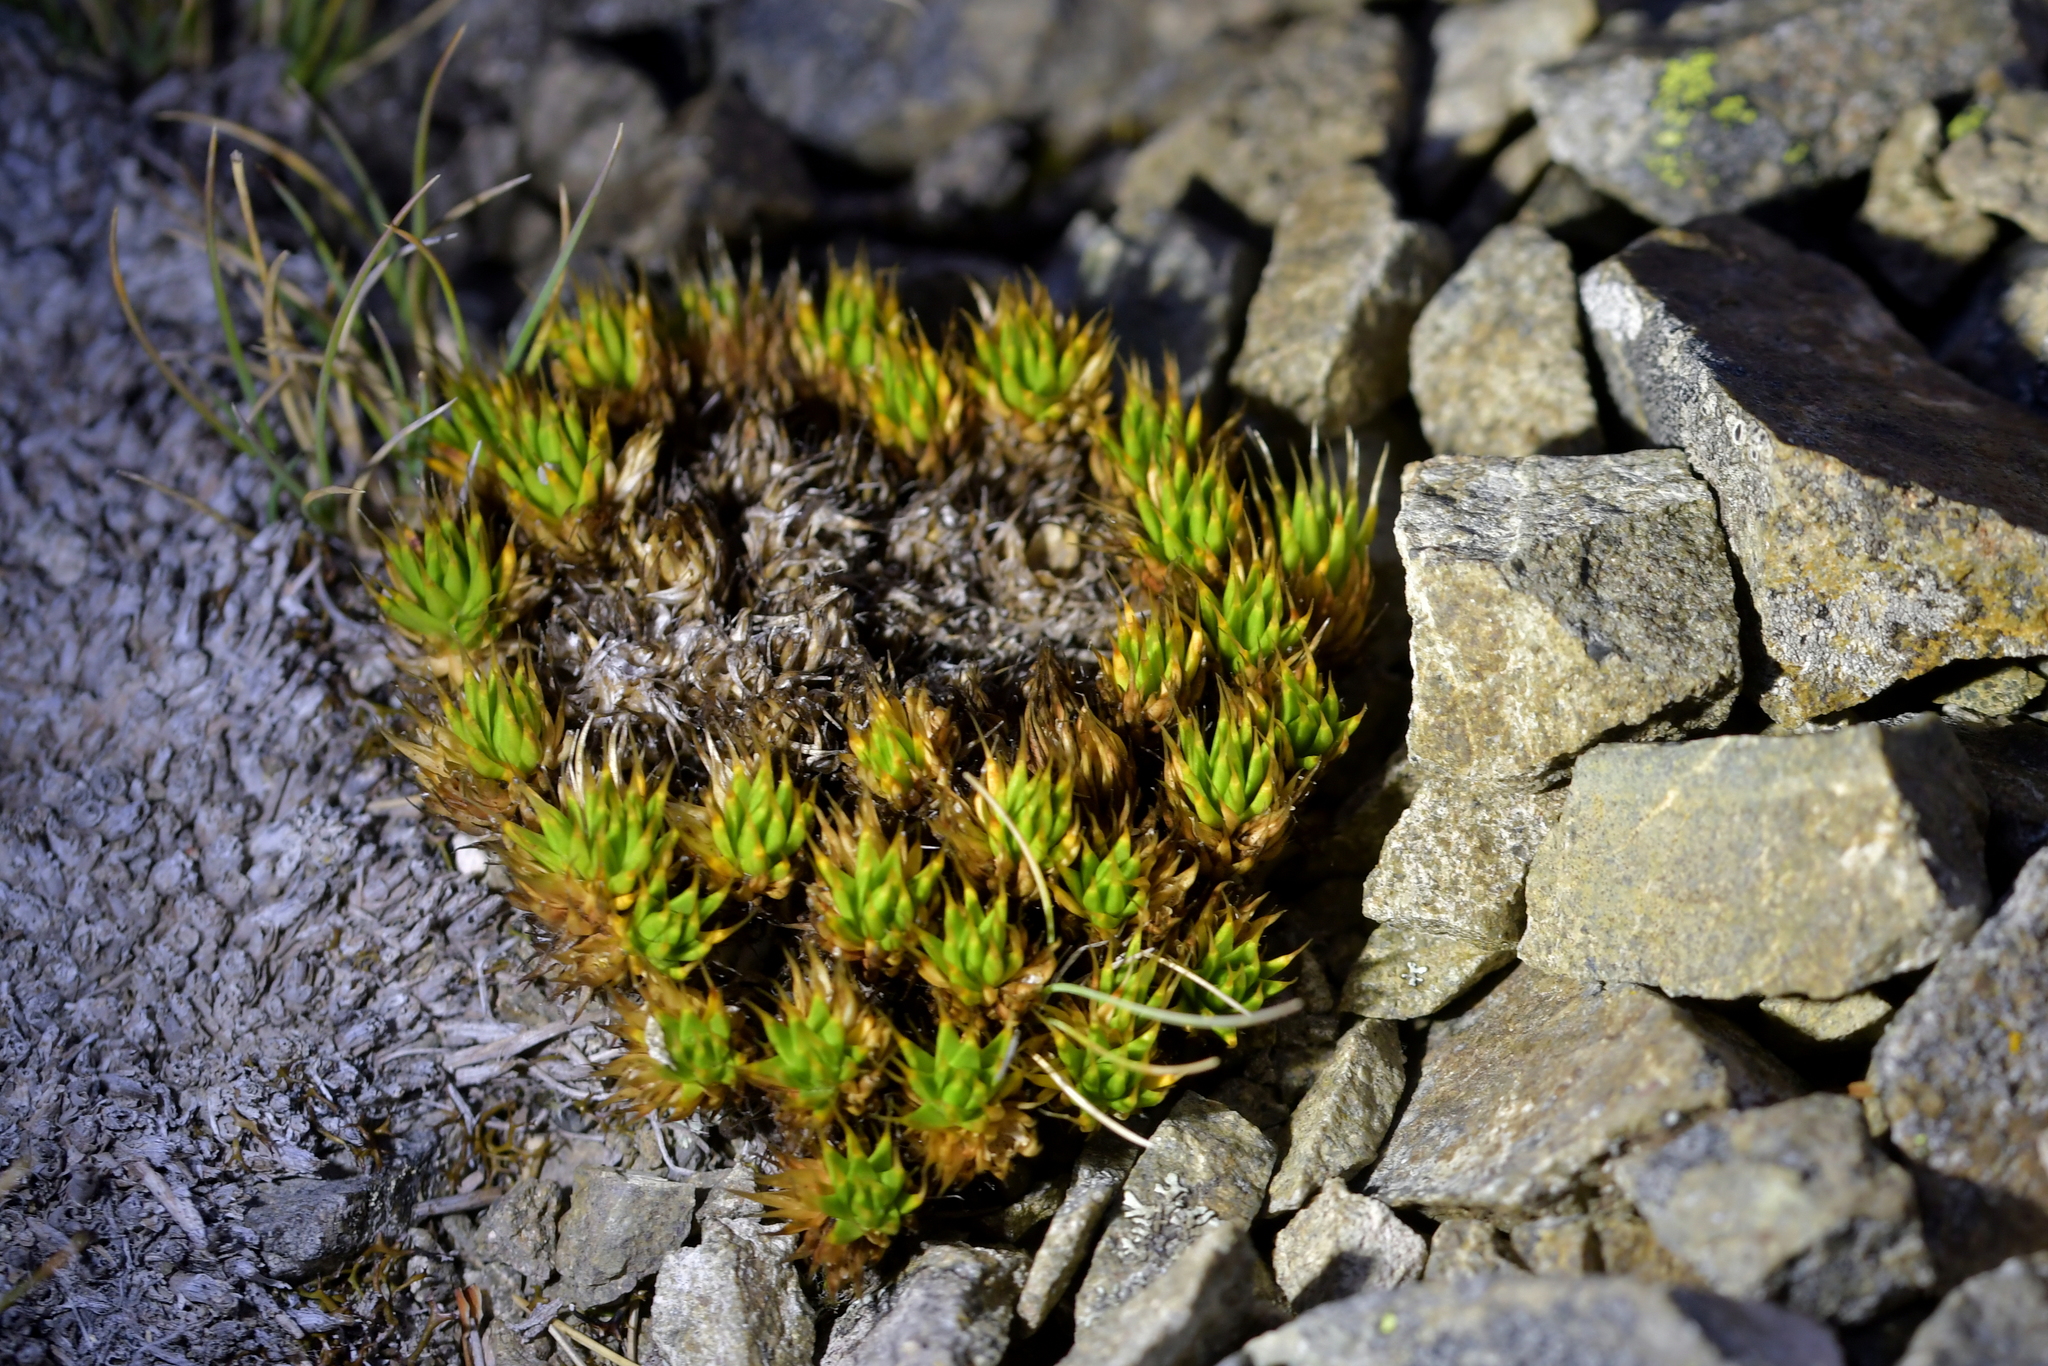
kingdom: Plantae
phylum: Tracheophyta
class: Magnoliopsida
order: Caryophyllales
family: Caryophyllaceae
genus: Colobanthus
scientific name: Colobanthus acicularis
